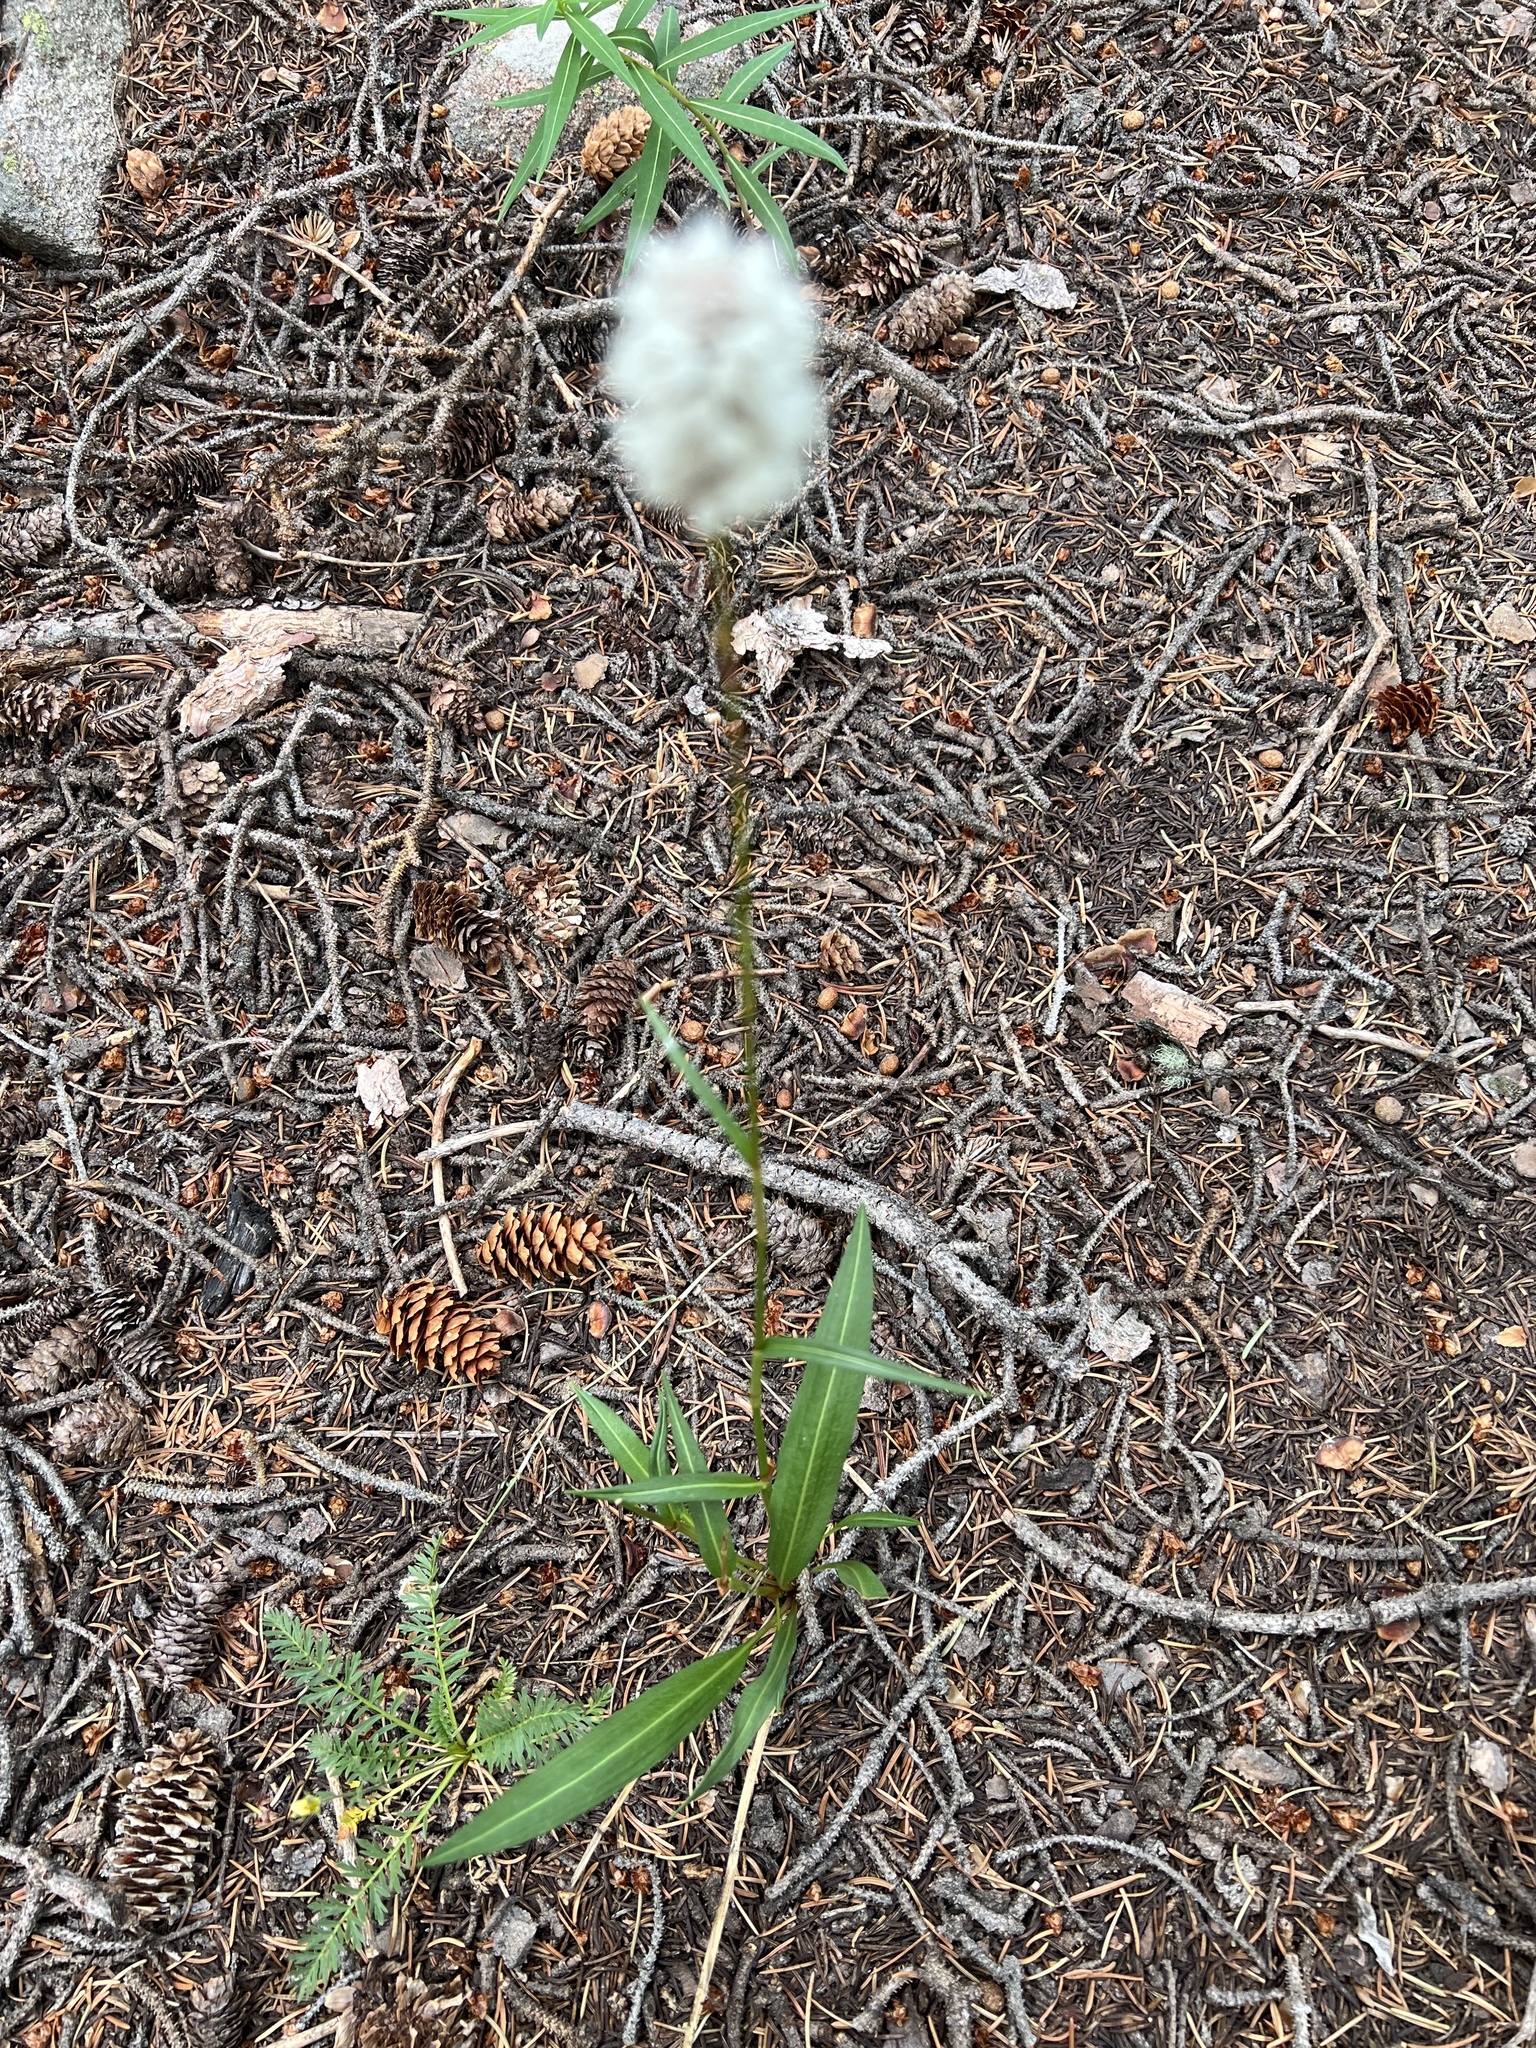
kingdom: Plantae
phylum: Tracheophyta
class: Magnoliopsida
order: Caryophyllales
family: Polygonaceae
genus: Bistorta
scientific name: Bistorta bistortoides
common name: American bistort
